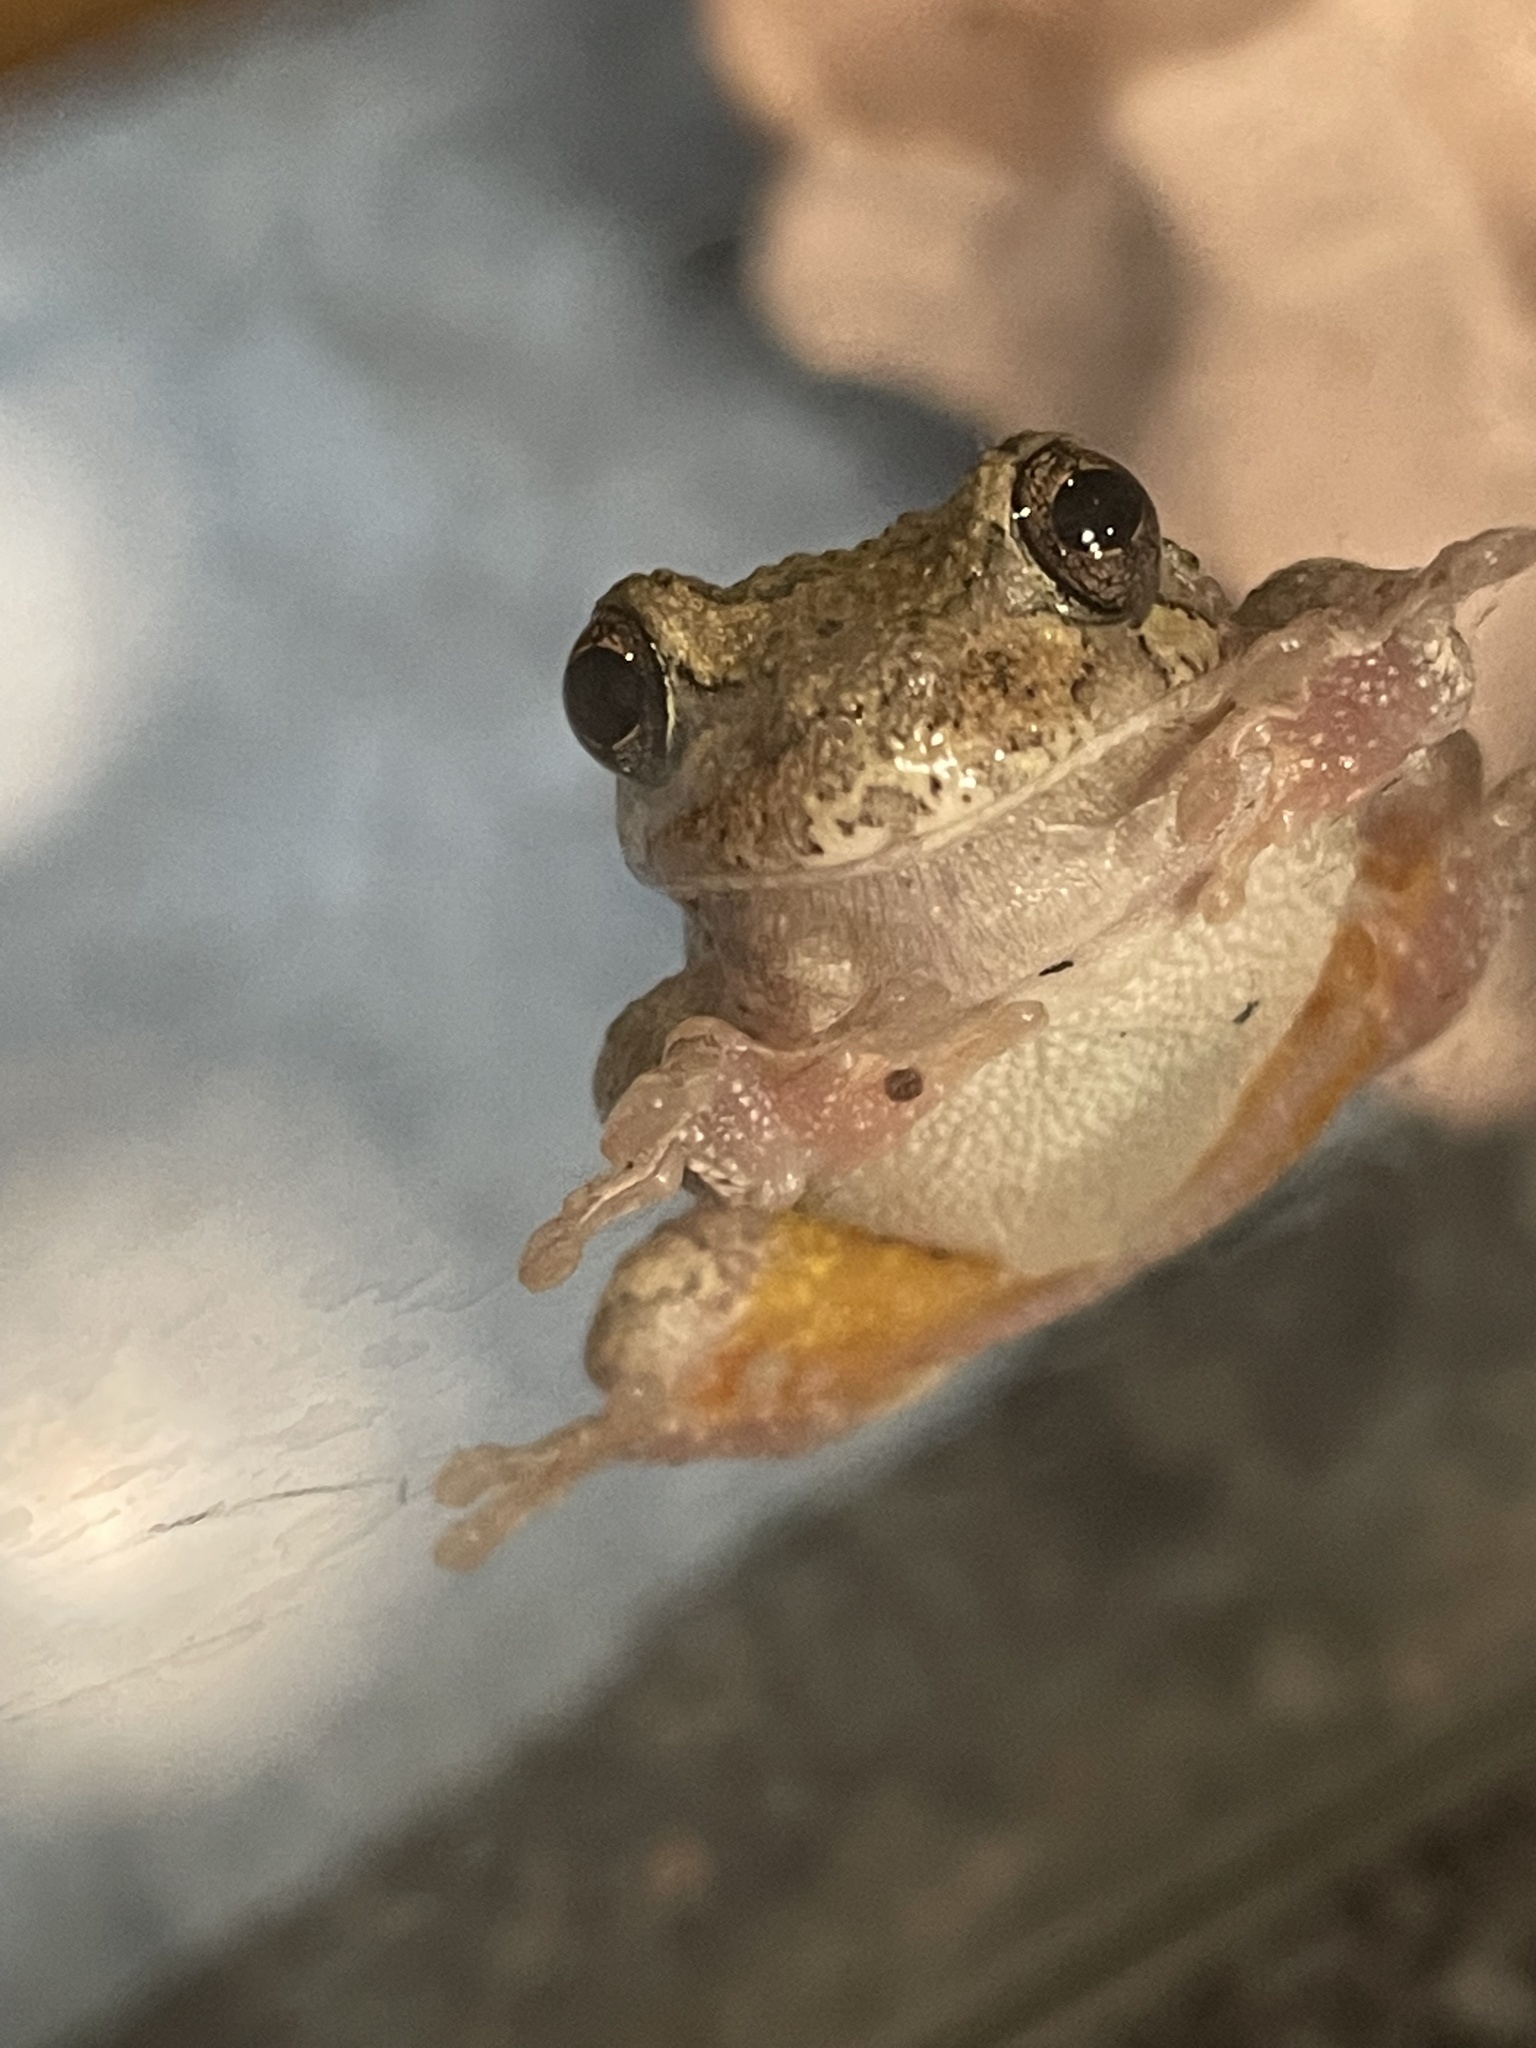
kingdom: Animalia
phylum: Chordata
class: Amphibia
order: Anura
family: Hylidae
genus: Dryophytes
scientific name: Dryophytes chrysoscelis
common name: Cope's gray treefrog
